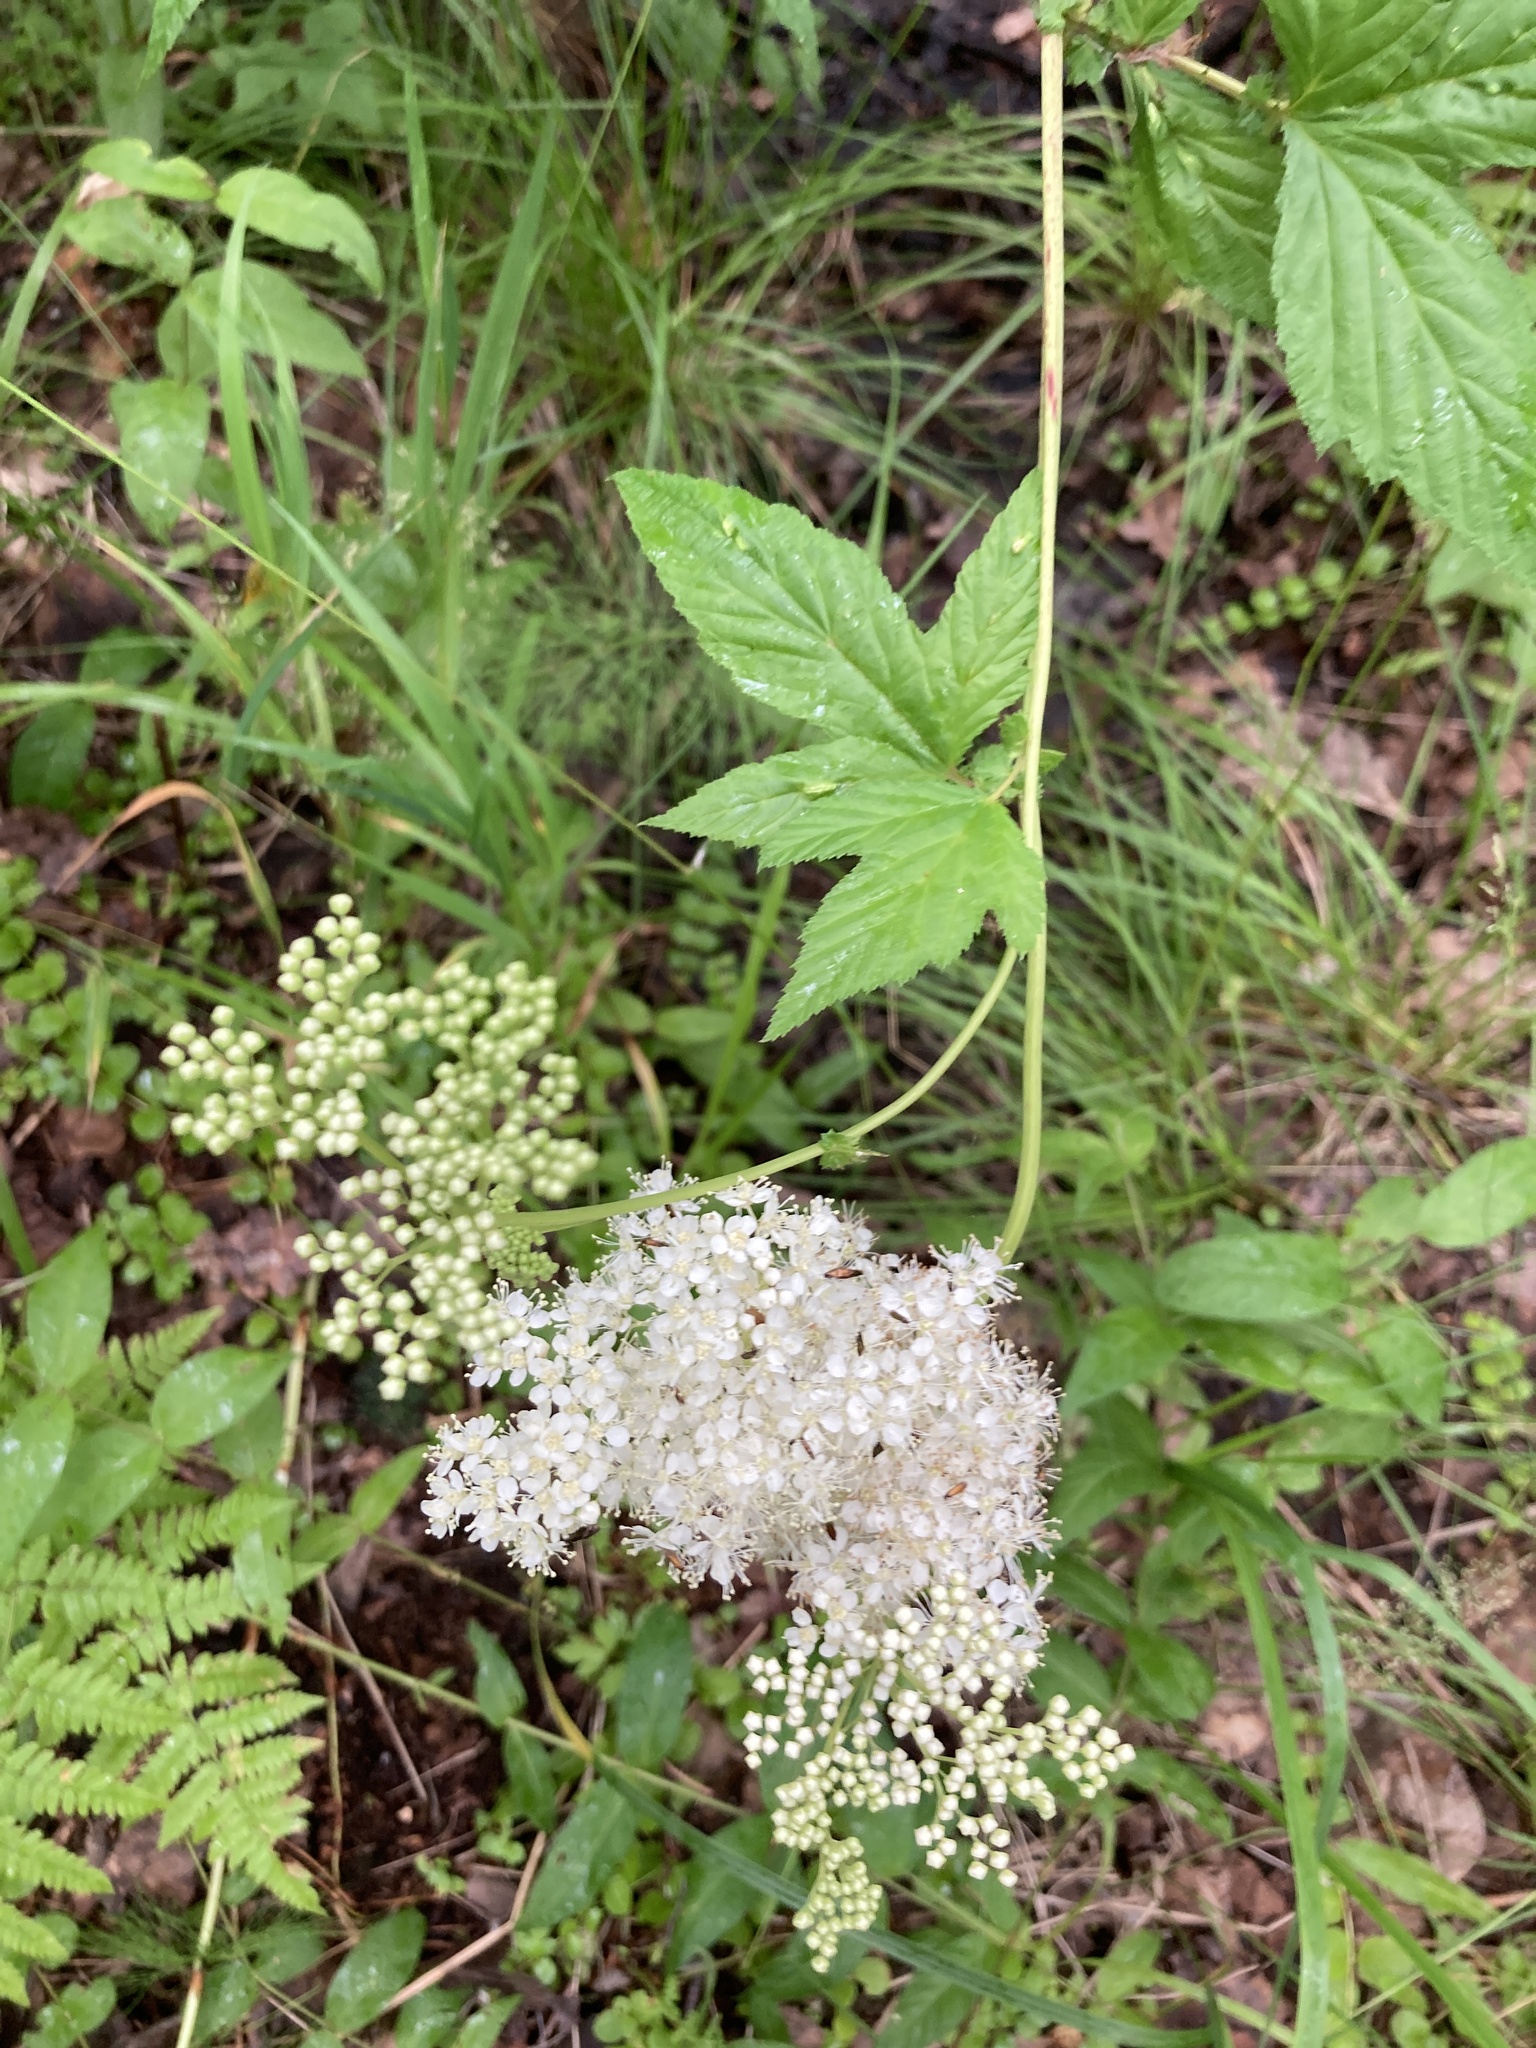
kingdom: Plantae
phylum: Tracheophyta
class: Magnoliopsida
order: Rosales
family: Rosaceae
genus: Filipendula
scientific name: Filipendula ulmaria
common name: Meadowsweet
